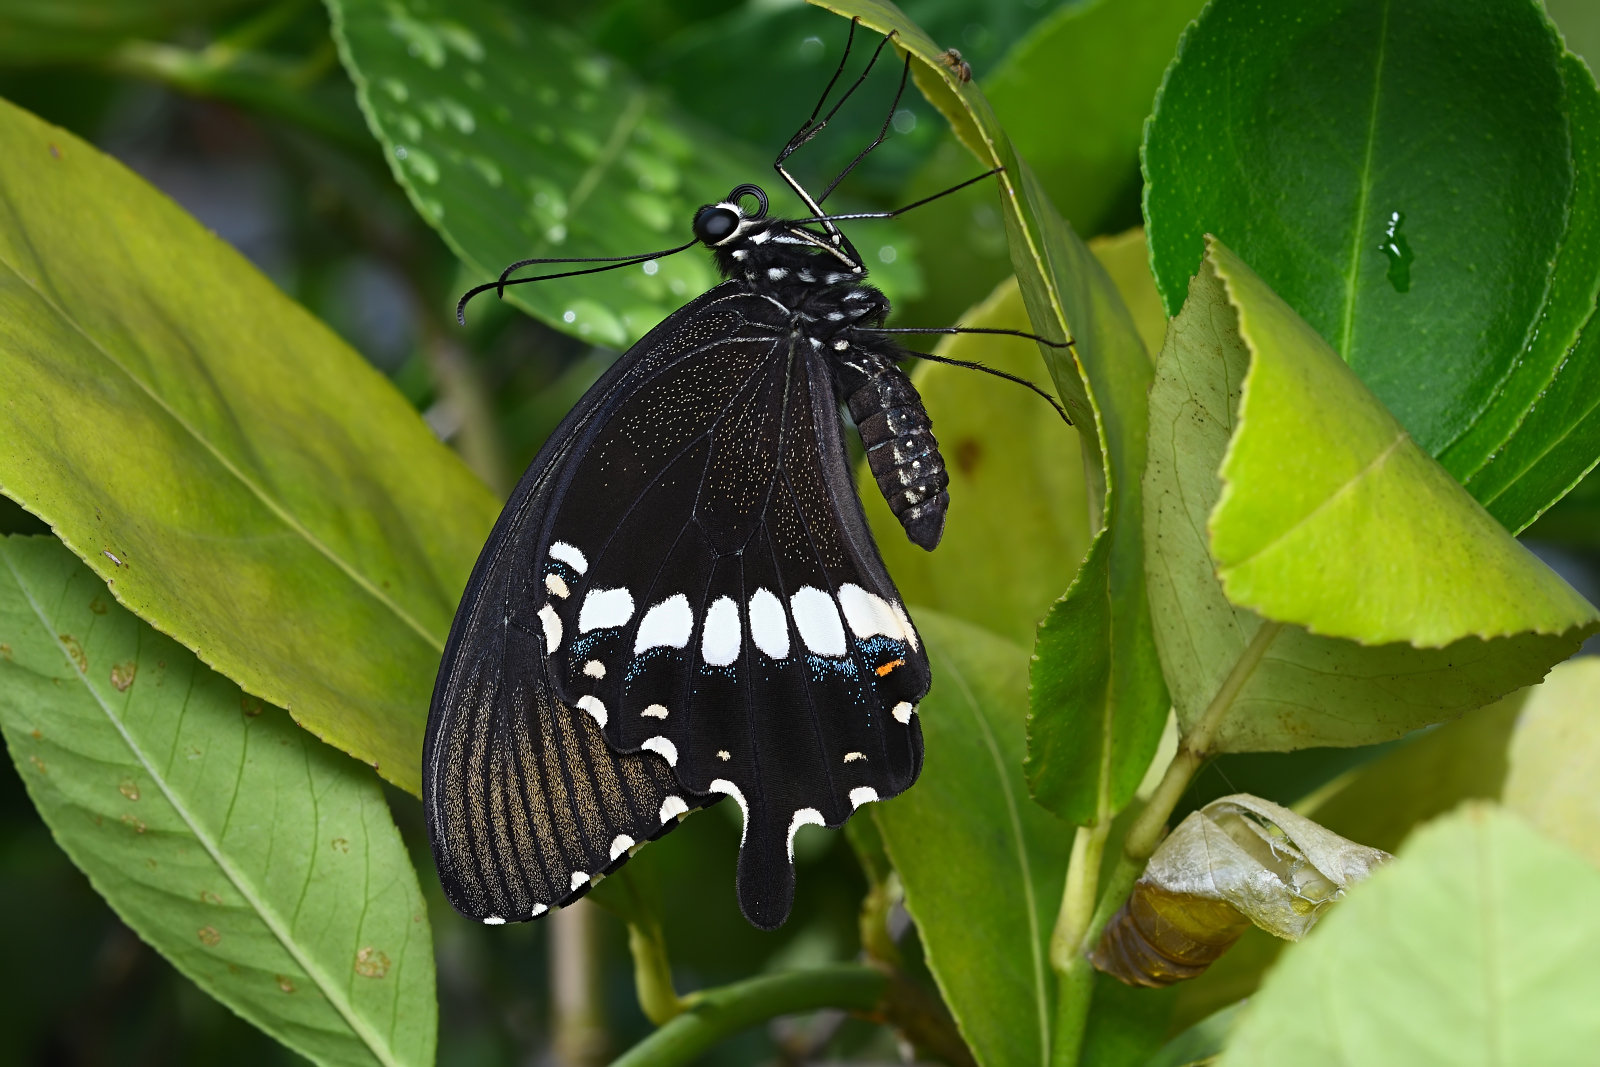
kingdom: Animalia
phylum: Arthropoda
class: Insecta
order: Lepidoptera
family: Papilionidae
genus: Papilio
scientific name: Papilio polytes
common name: Common mormon
